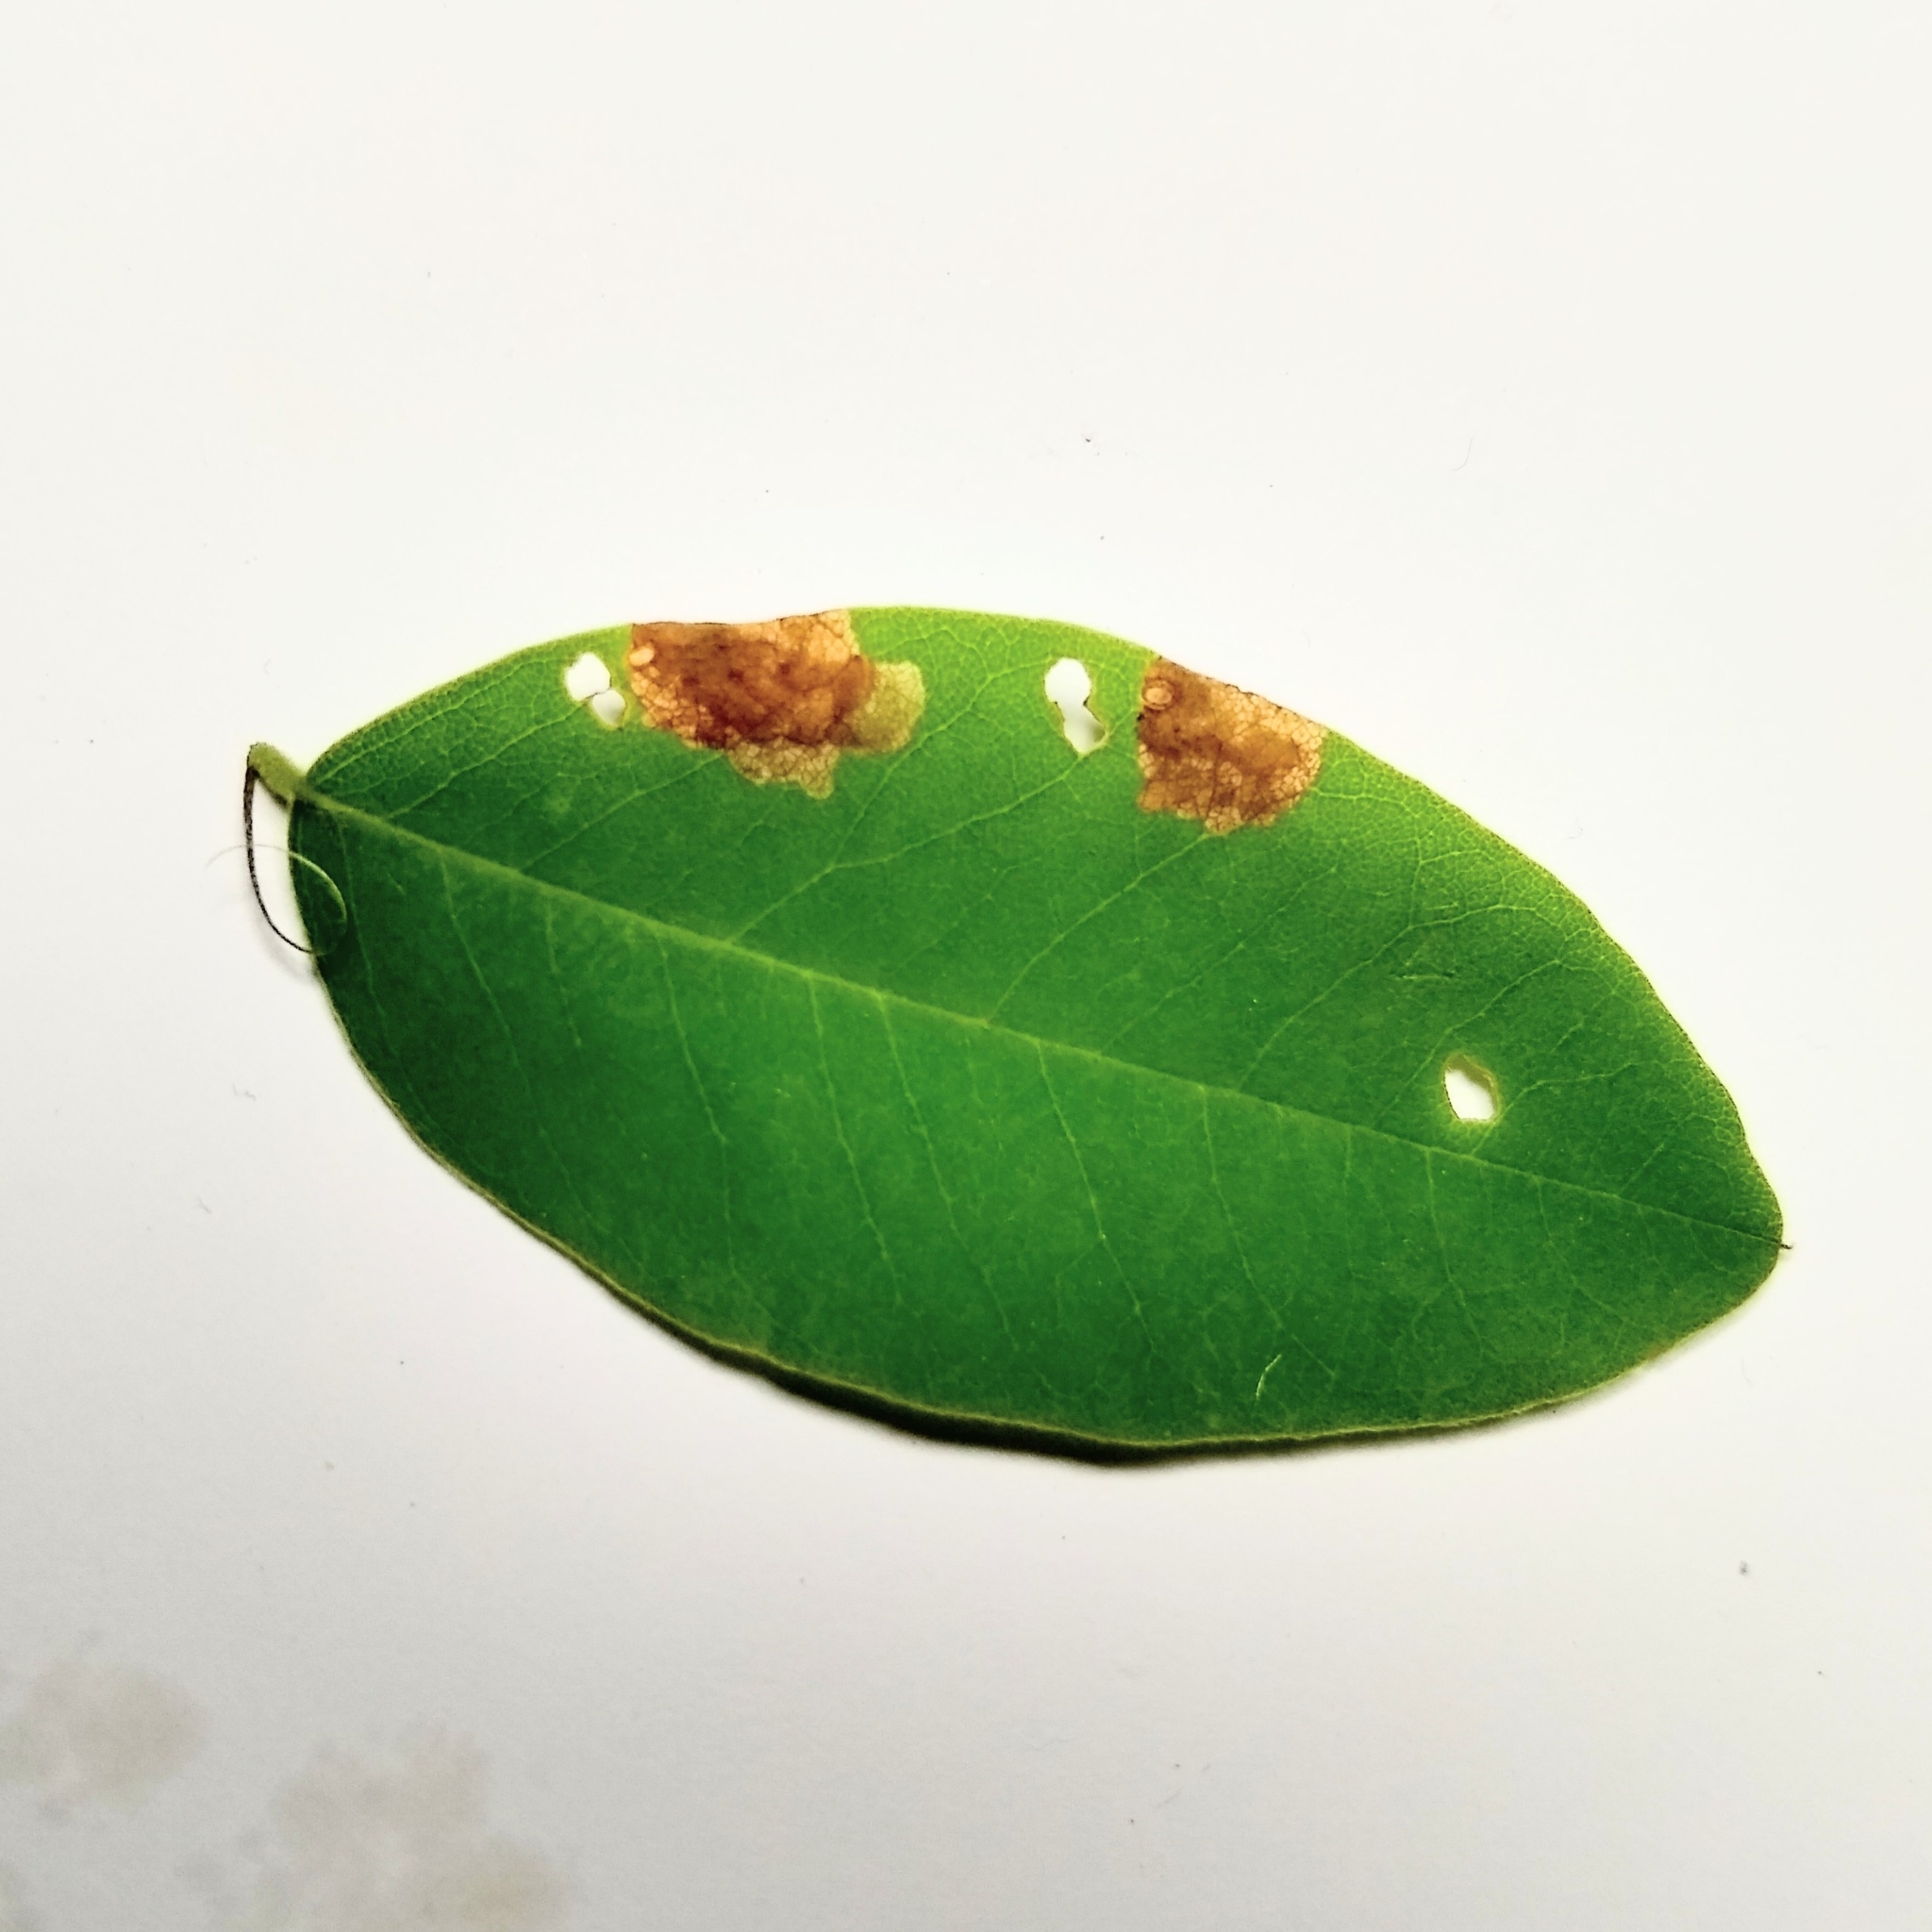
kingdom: Animalia
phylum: Arthropoda
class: Insecta
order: Coleoptera
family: Chrysomelidae
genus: Sumitrosis
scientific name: Sumitrosis rosea
